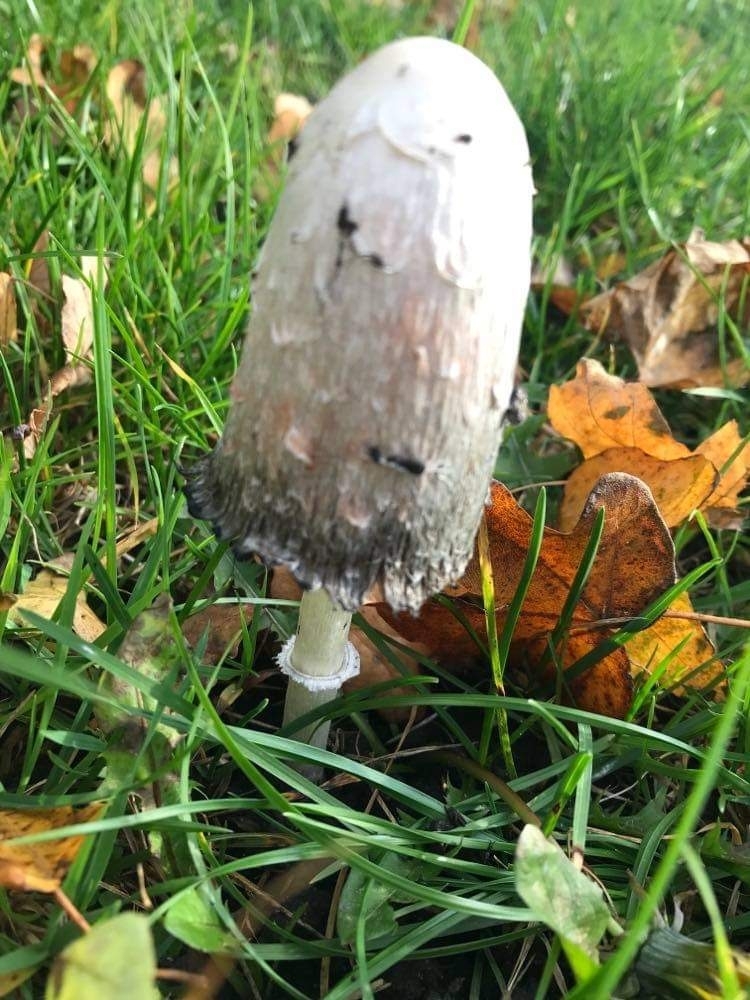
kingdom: Fungi
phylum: Basidiomycota
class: Agaricomycetes
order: Agaricales
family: Agaricaceae
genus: Coprinus
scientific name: Coprinus comatus
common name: Lawyer's wig
